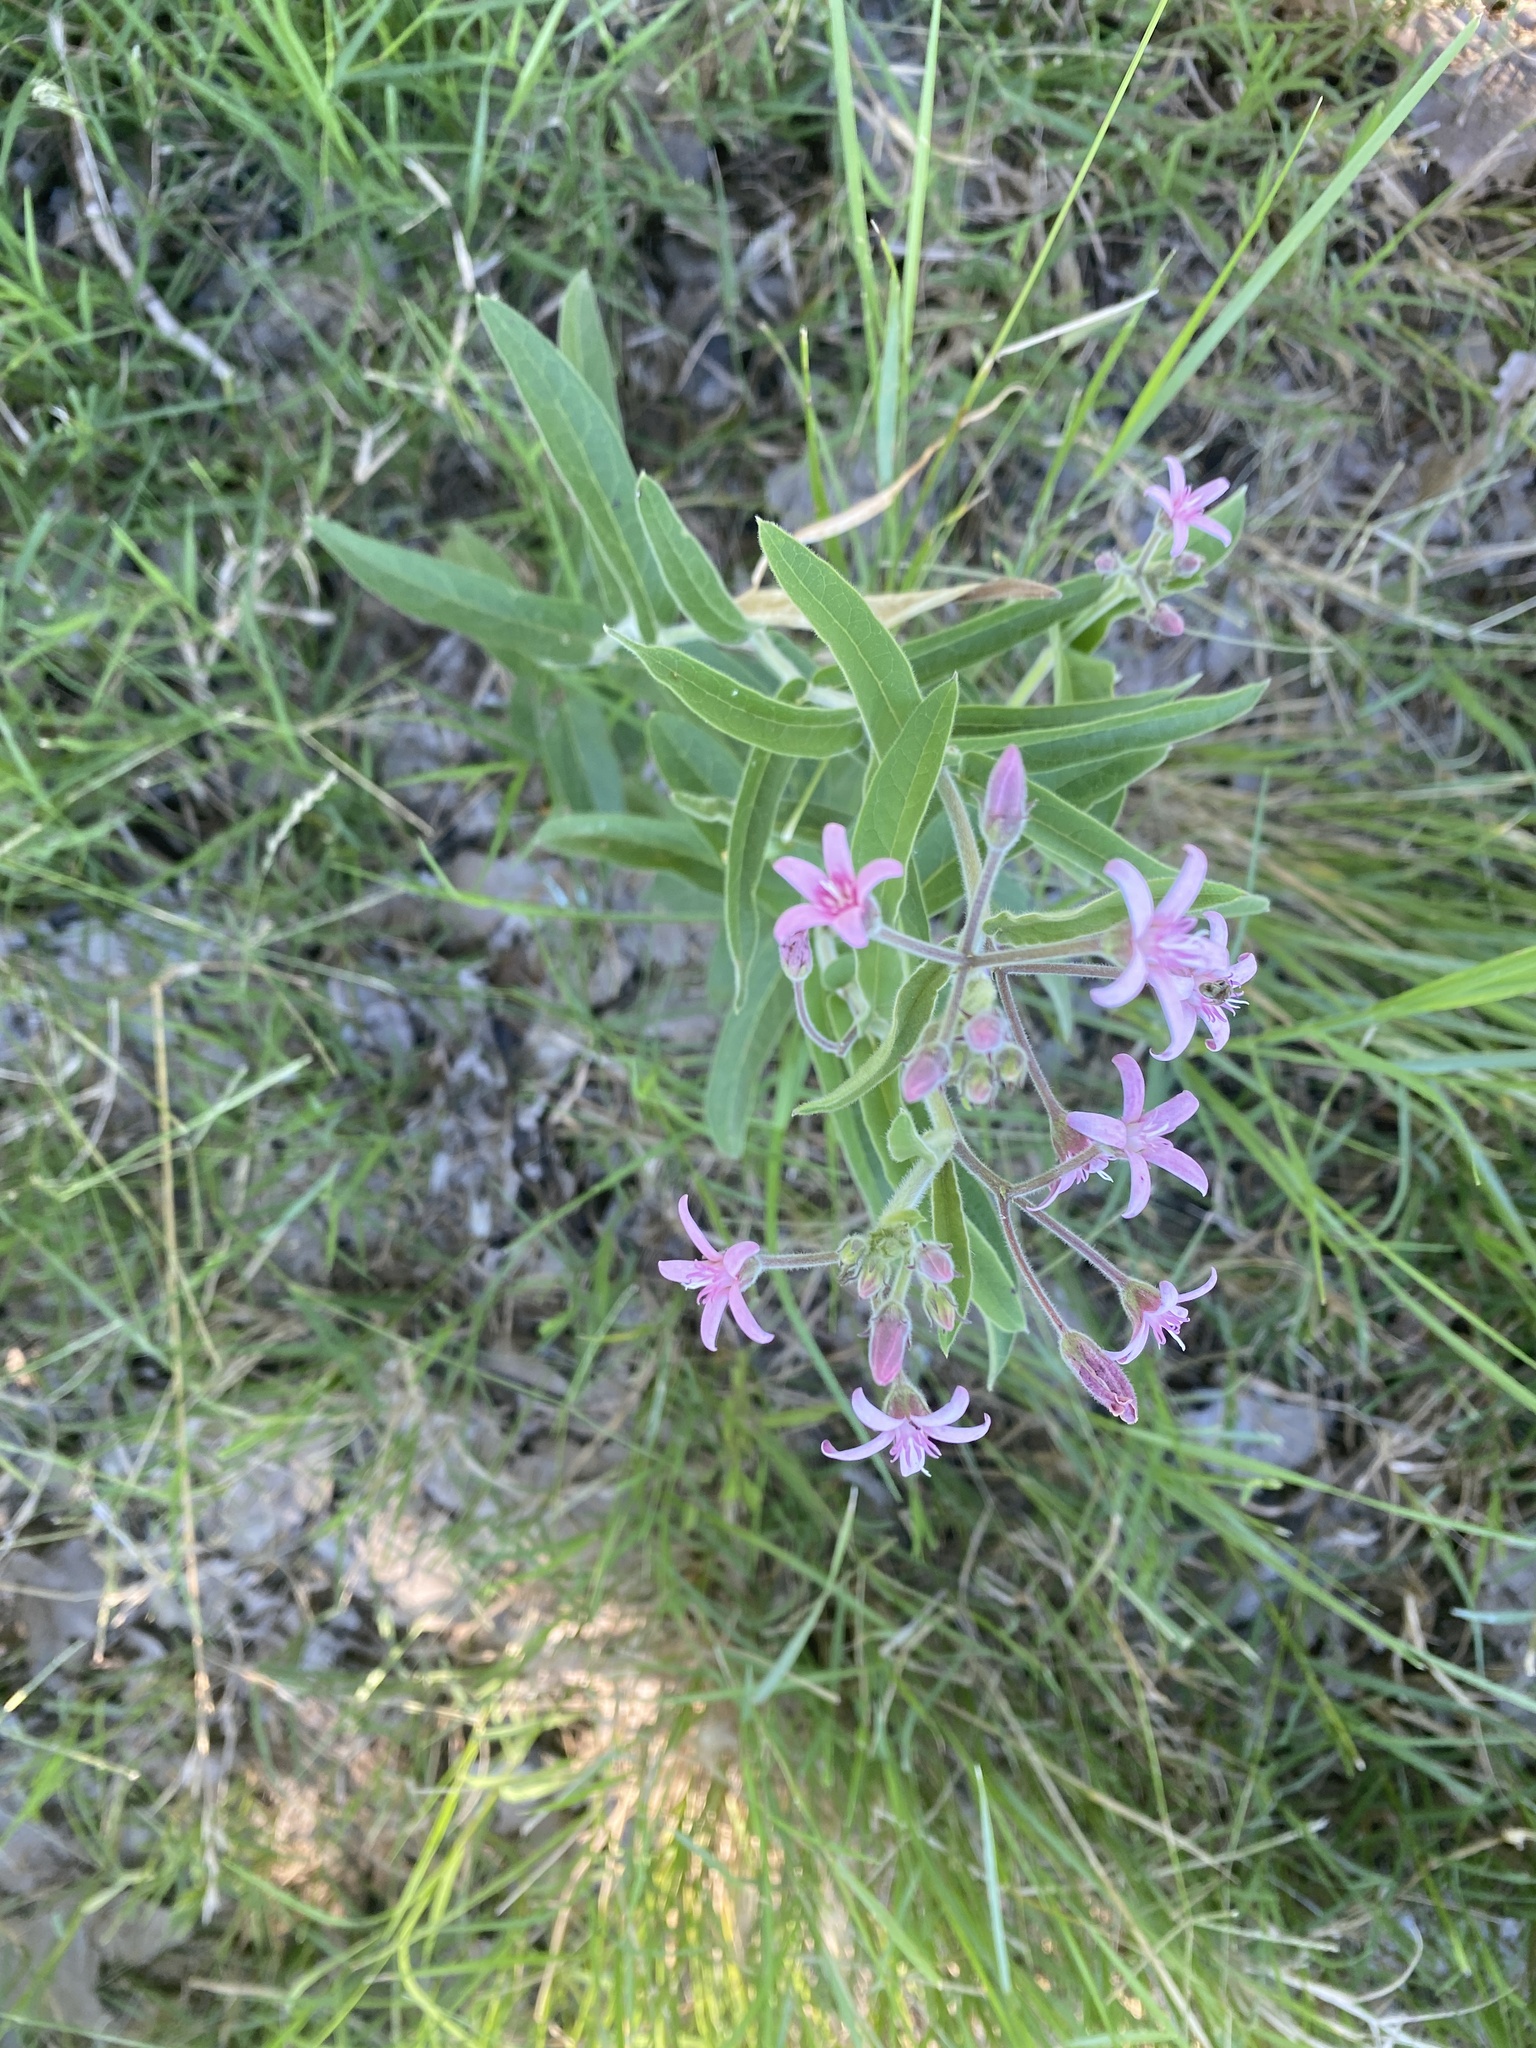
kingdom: Plantae
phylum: Tracheophyta
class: Magnoliopsida
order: Gentianales
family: Apocynaceae
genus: Oxypetalum
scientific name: Oxypetalum solanoides
